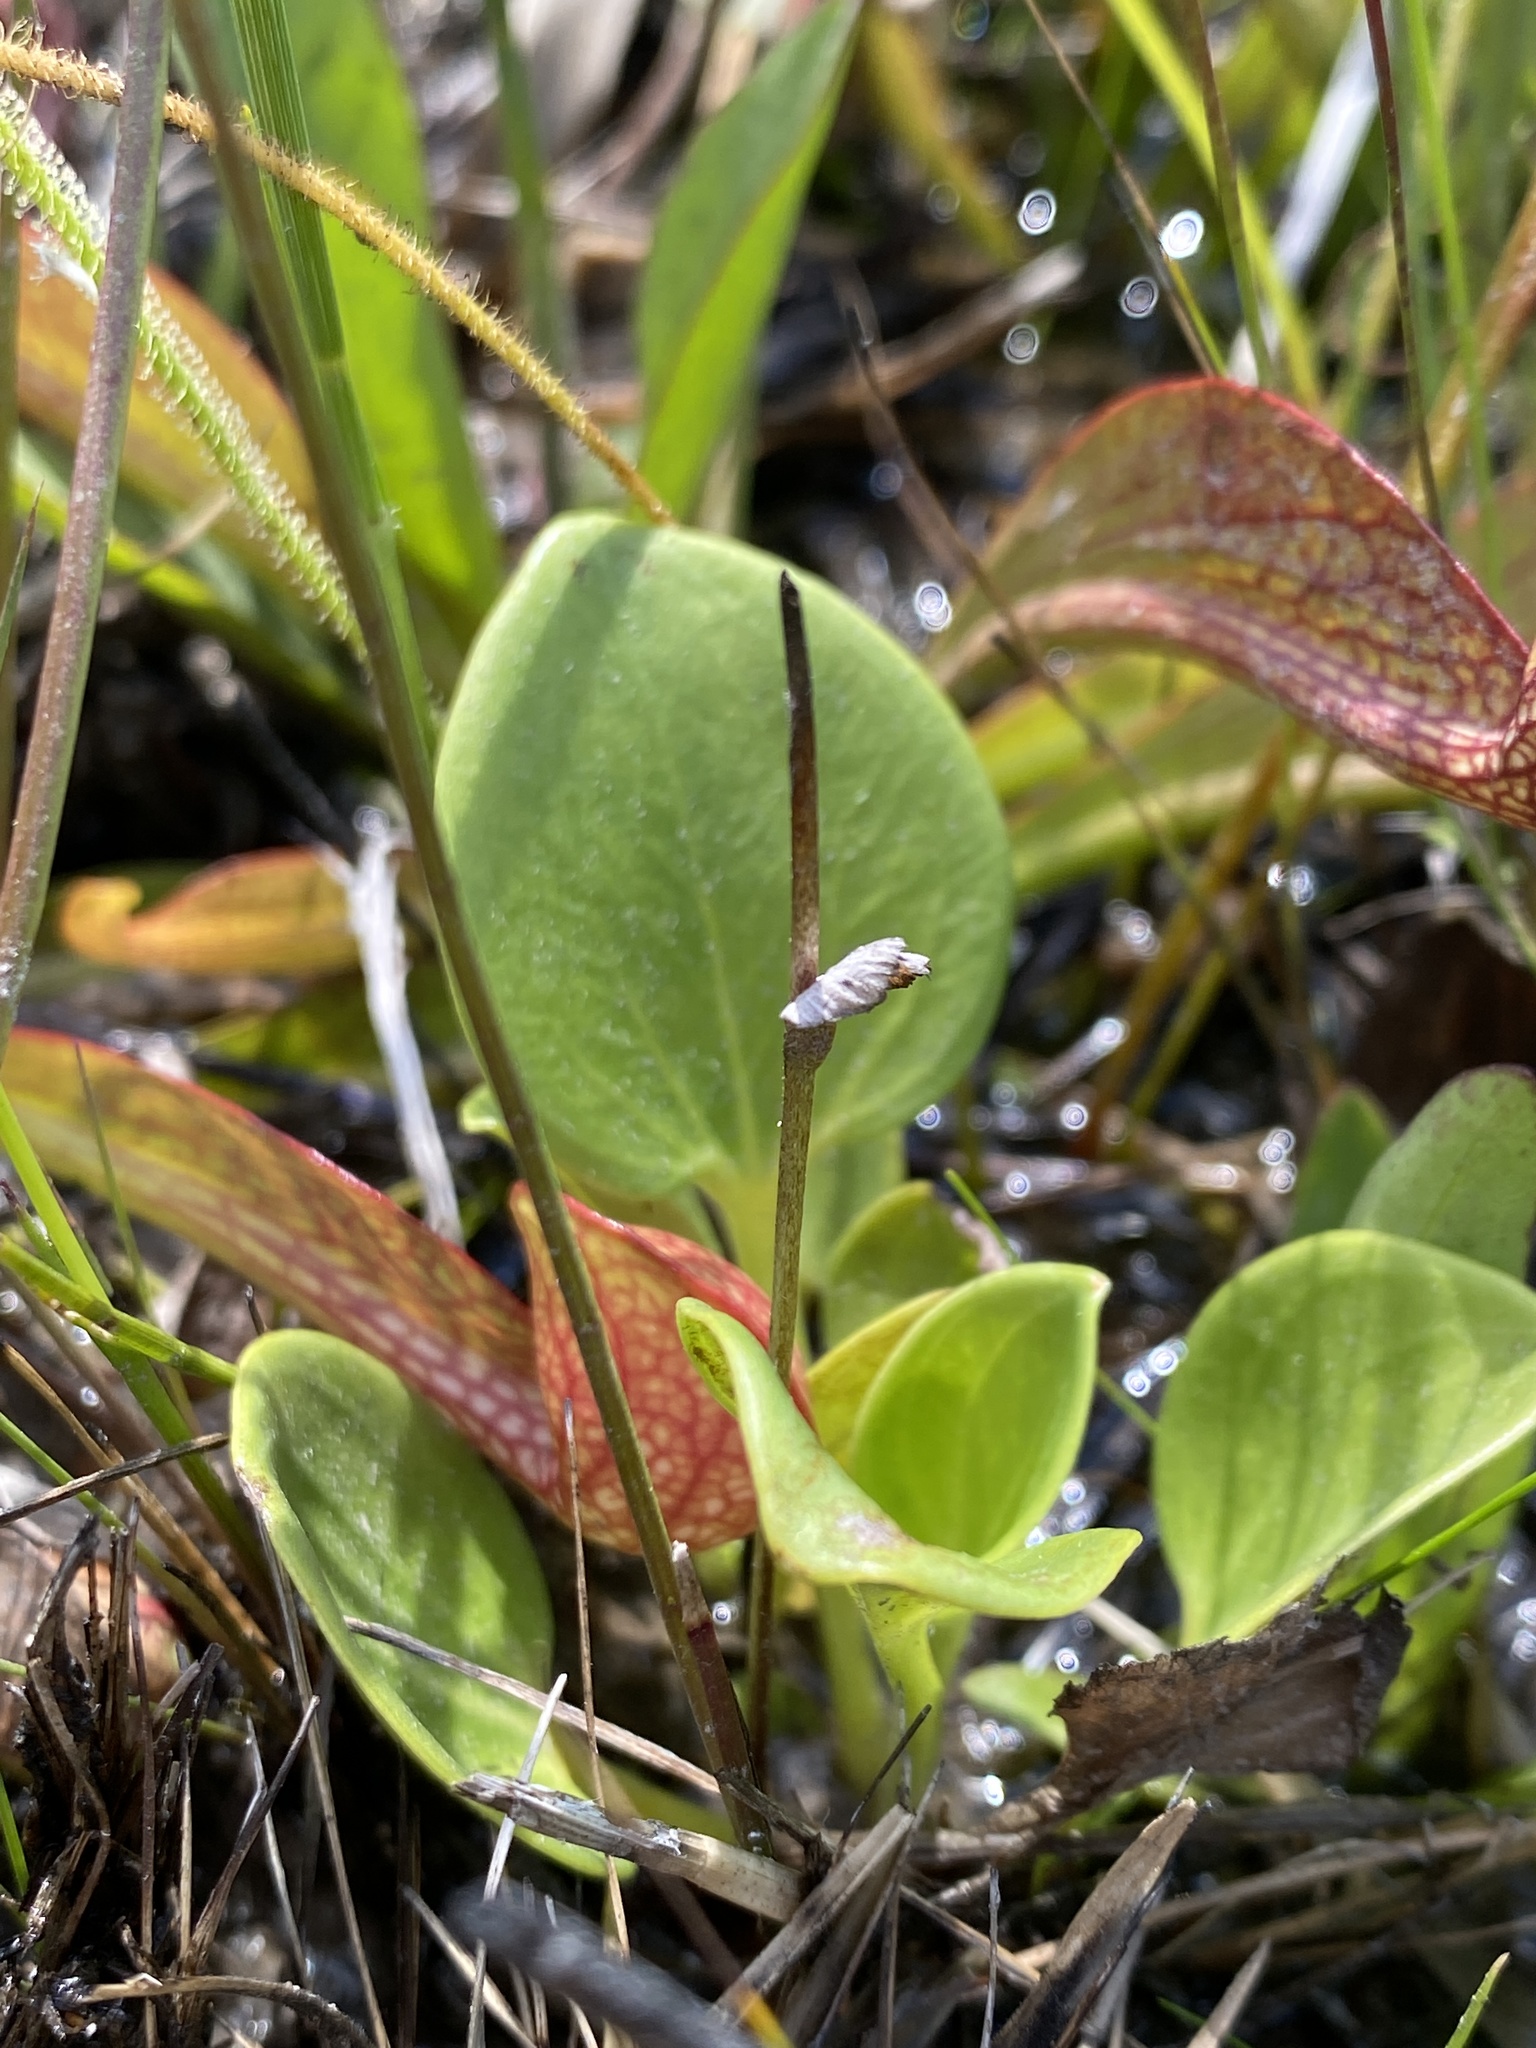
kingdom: Plantae
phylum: Tracheophyta
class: Magnoliopsida
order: Celastrales
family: Parnassiaceae
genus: Parnassia
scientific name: Parnassia caroliniana
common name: Carolina grass of parnassus
